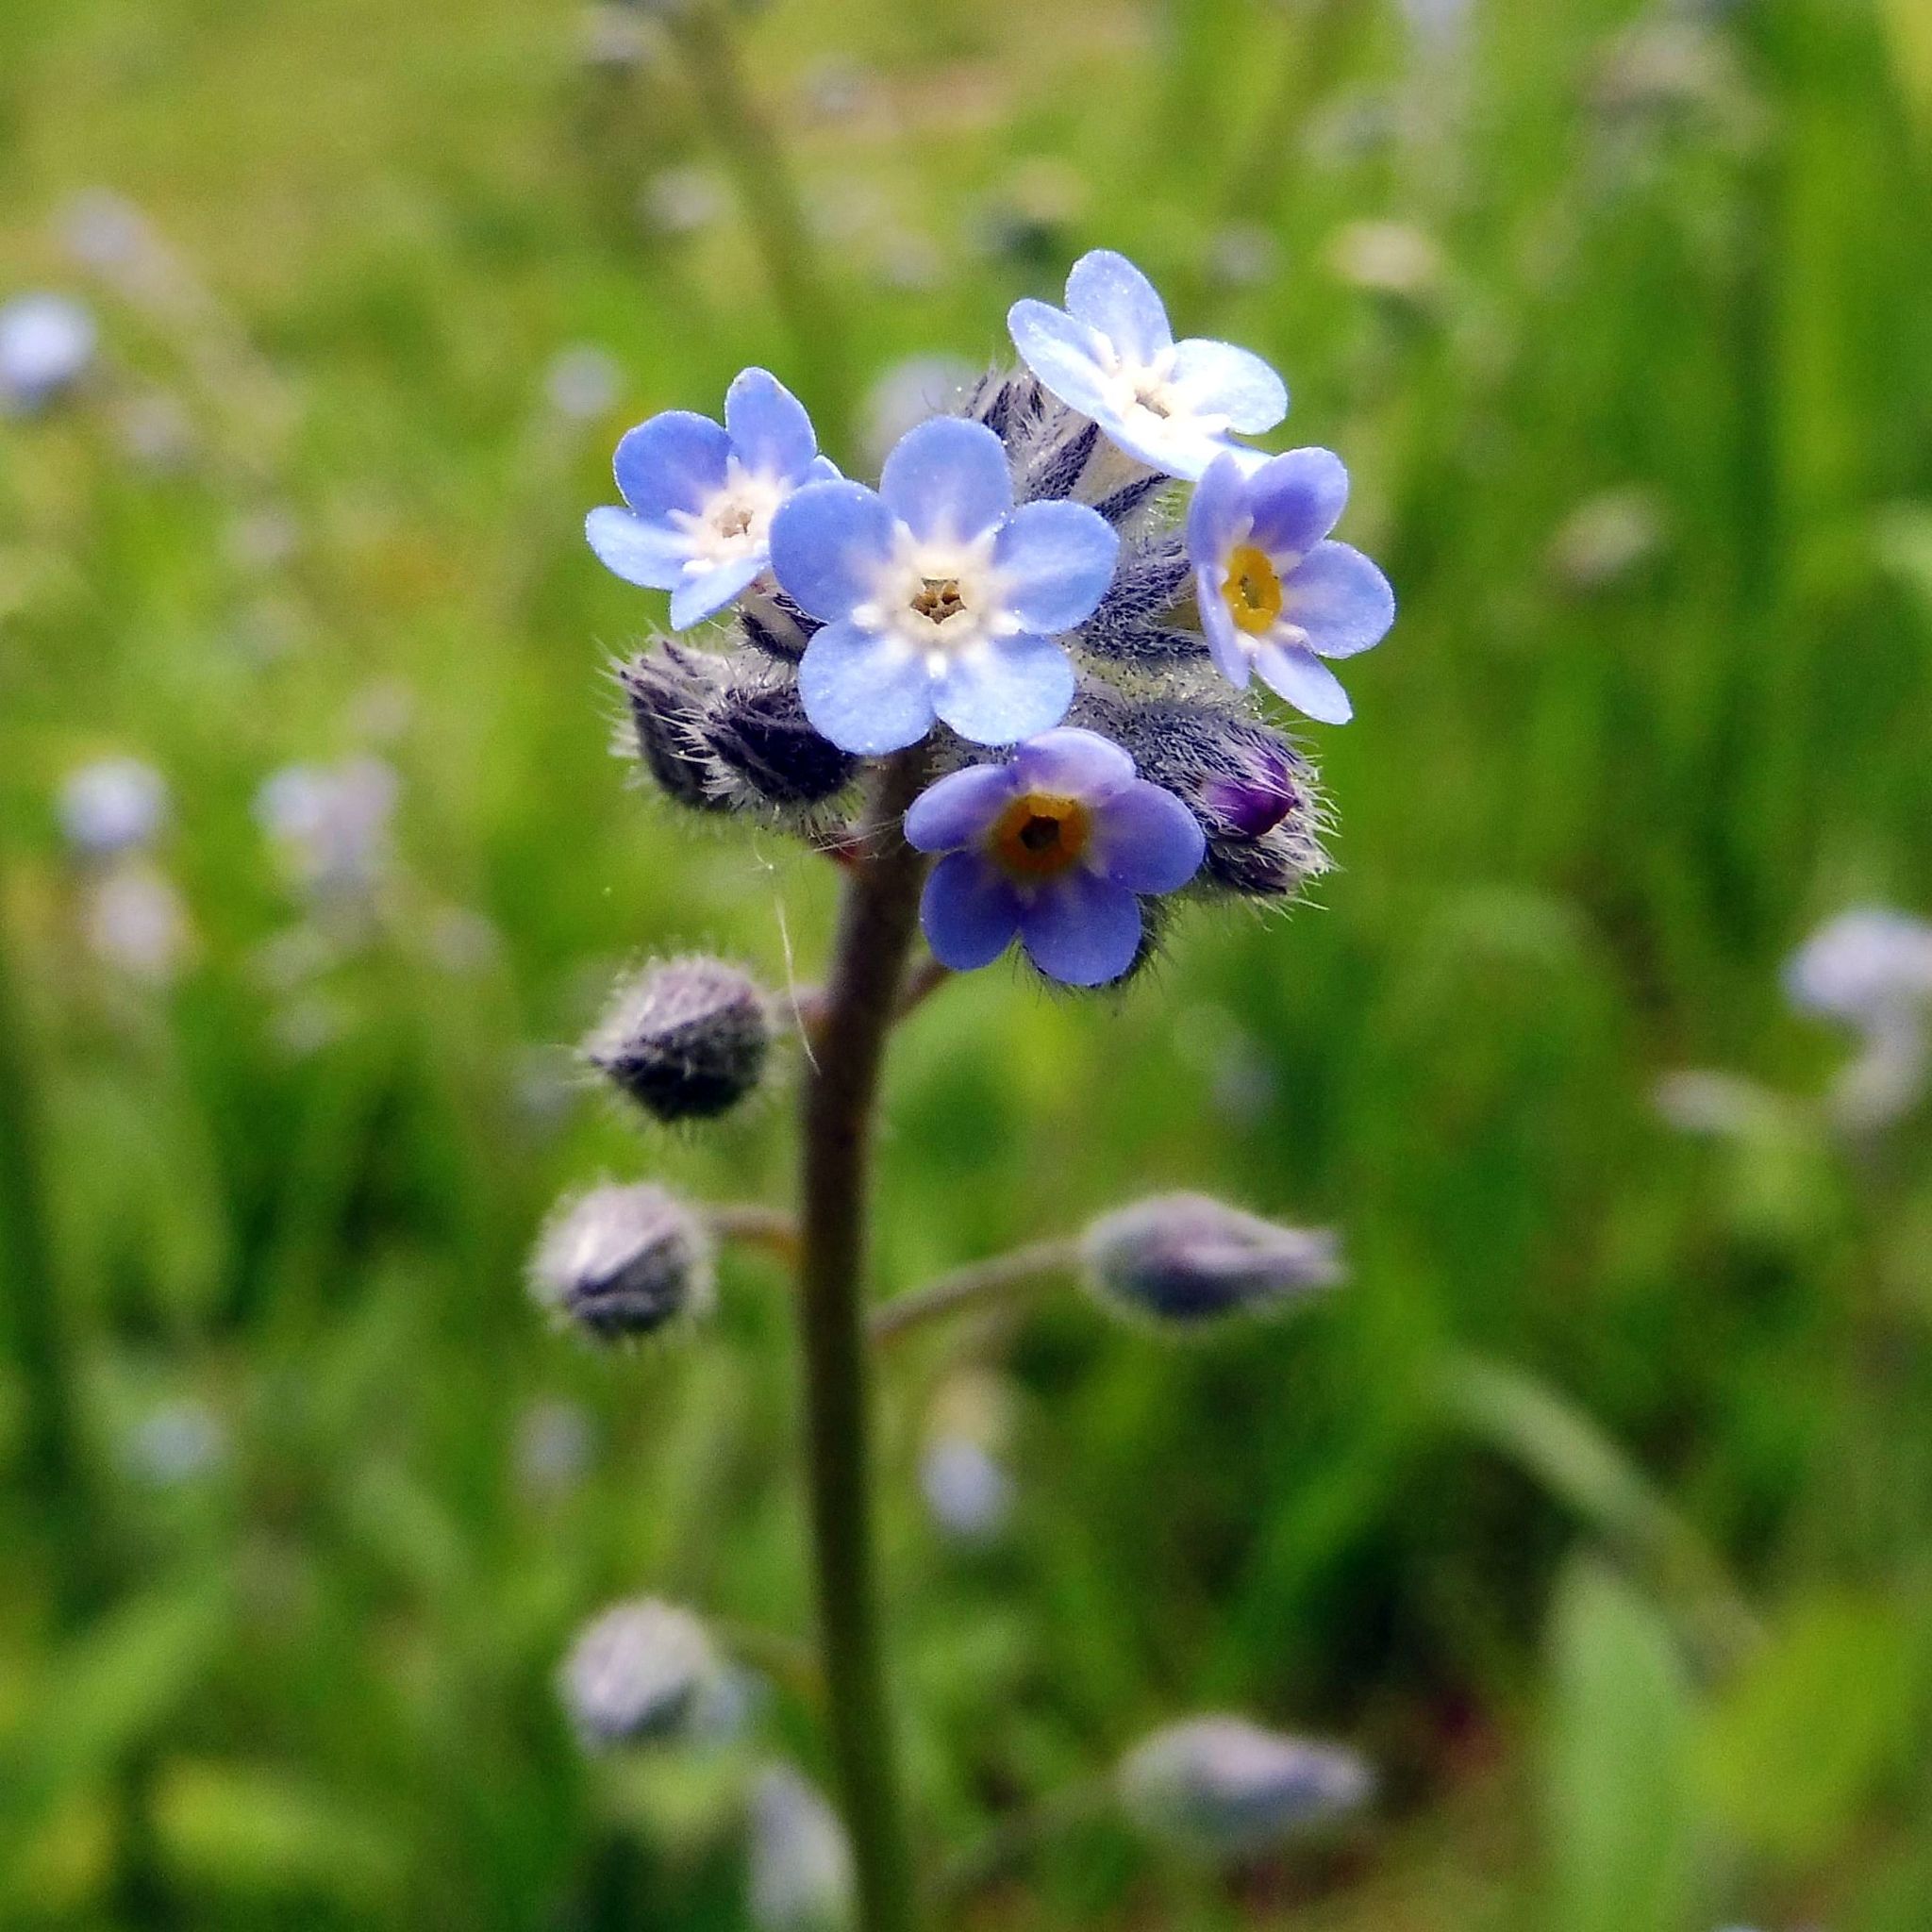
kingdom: Plantae
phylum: Tracheophyta
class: Magnoliopsida
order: Boraginales
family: Boraginaceae
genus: Myosotis
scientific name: Myosotis arvensis
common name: Field forget-me-not
